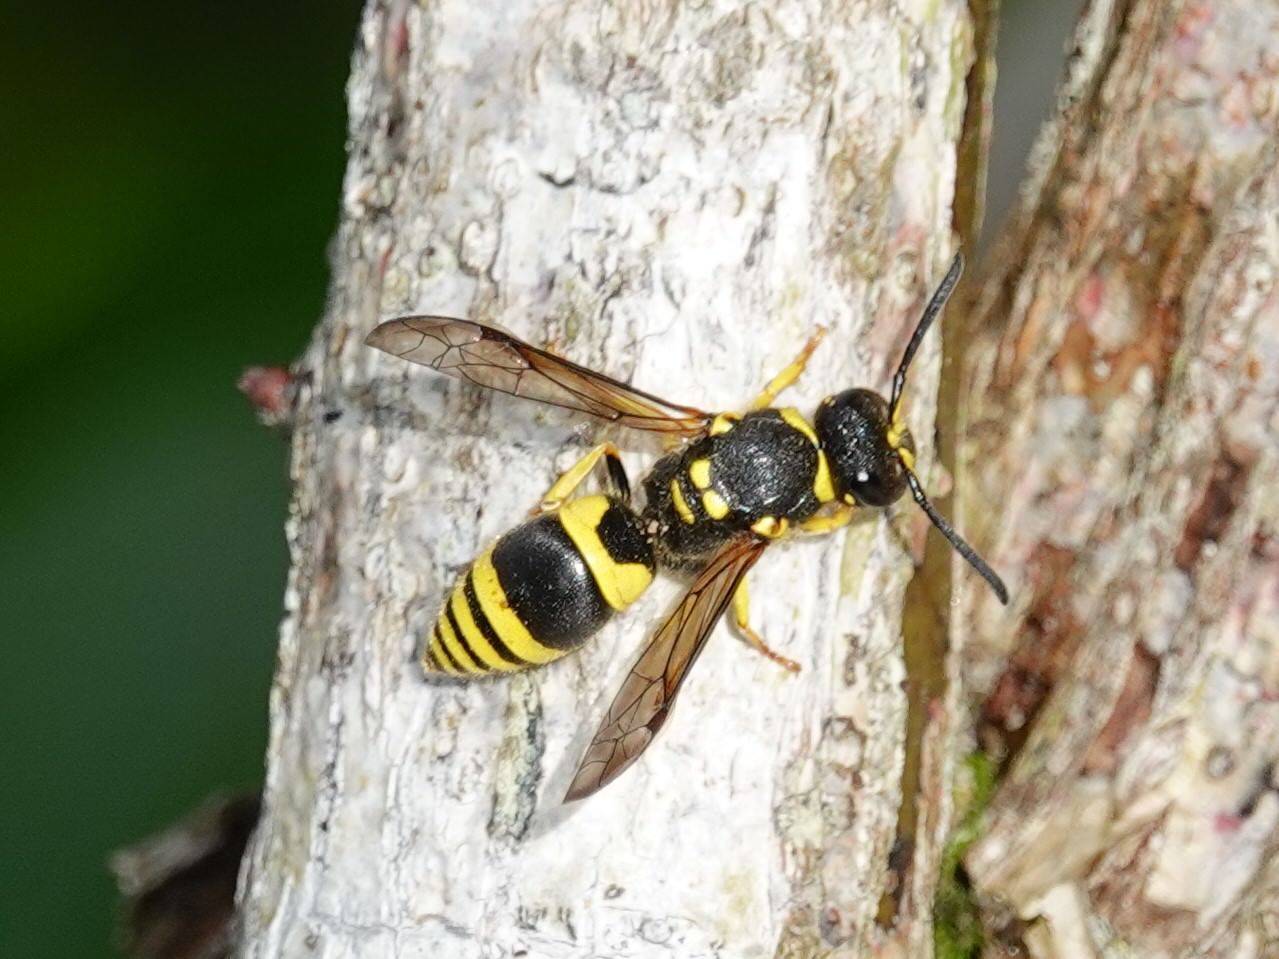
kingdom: Animalia
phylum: Arthropoda
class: Insecta
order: Hymenoptera
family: Vespidae
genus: Ancistrocerus
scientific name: Ancistrocerus gazella
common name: European tube wasp
